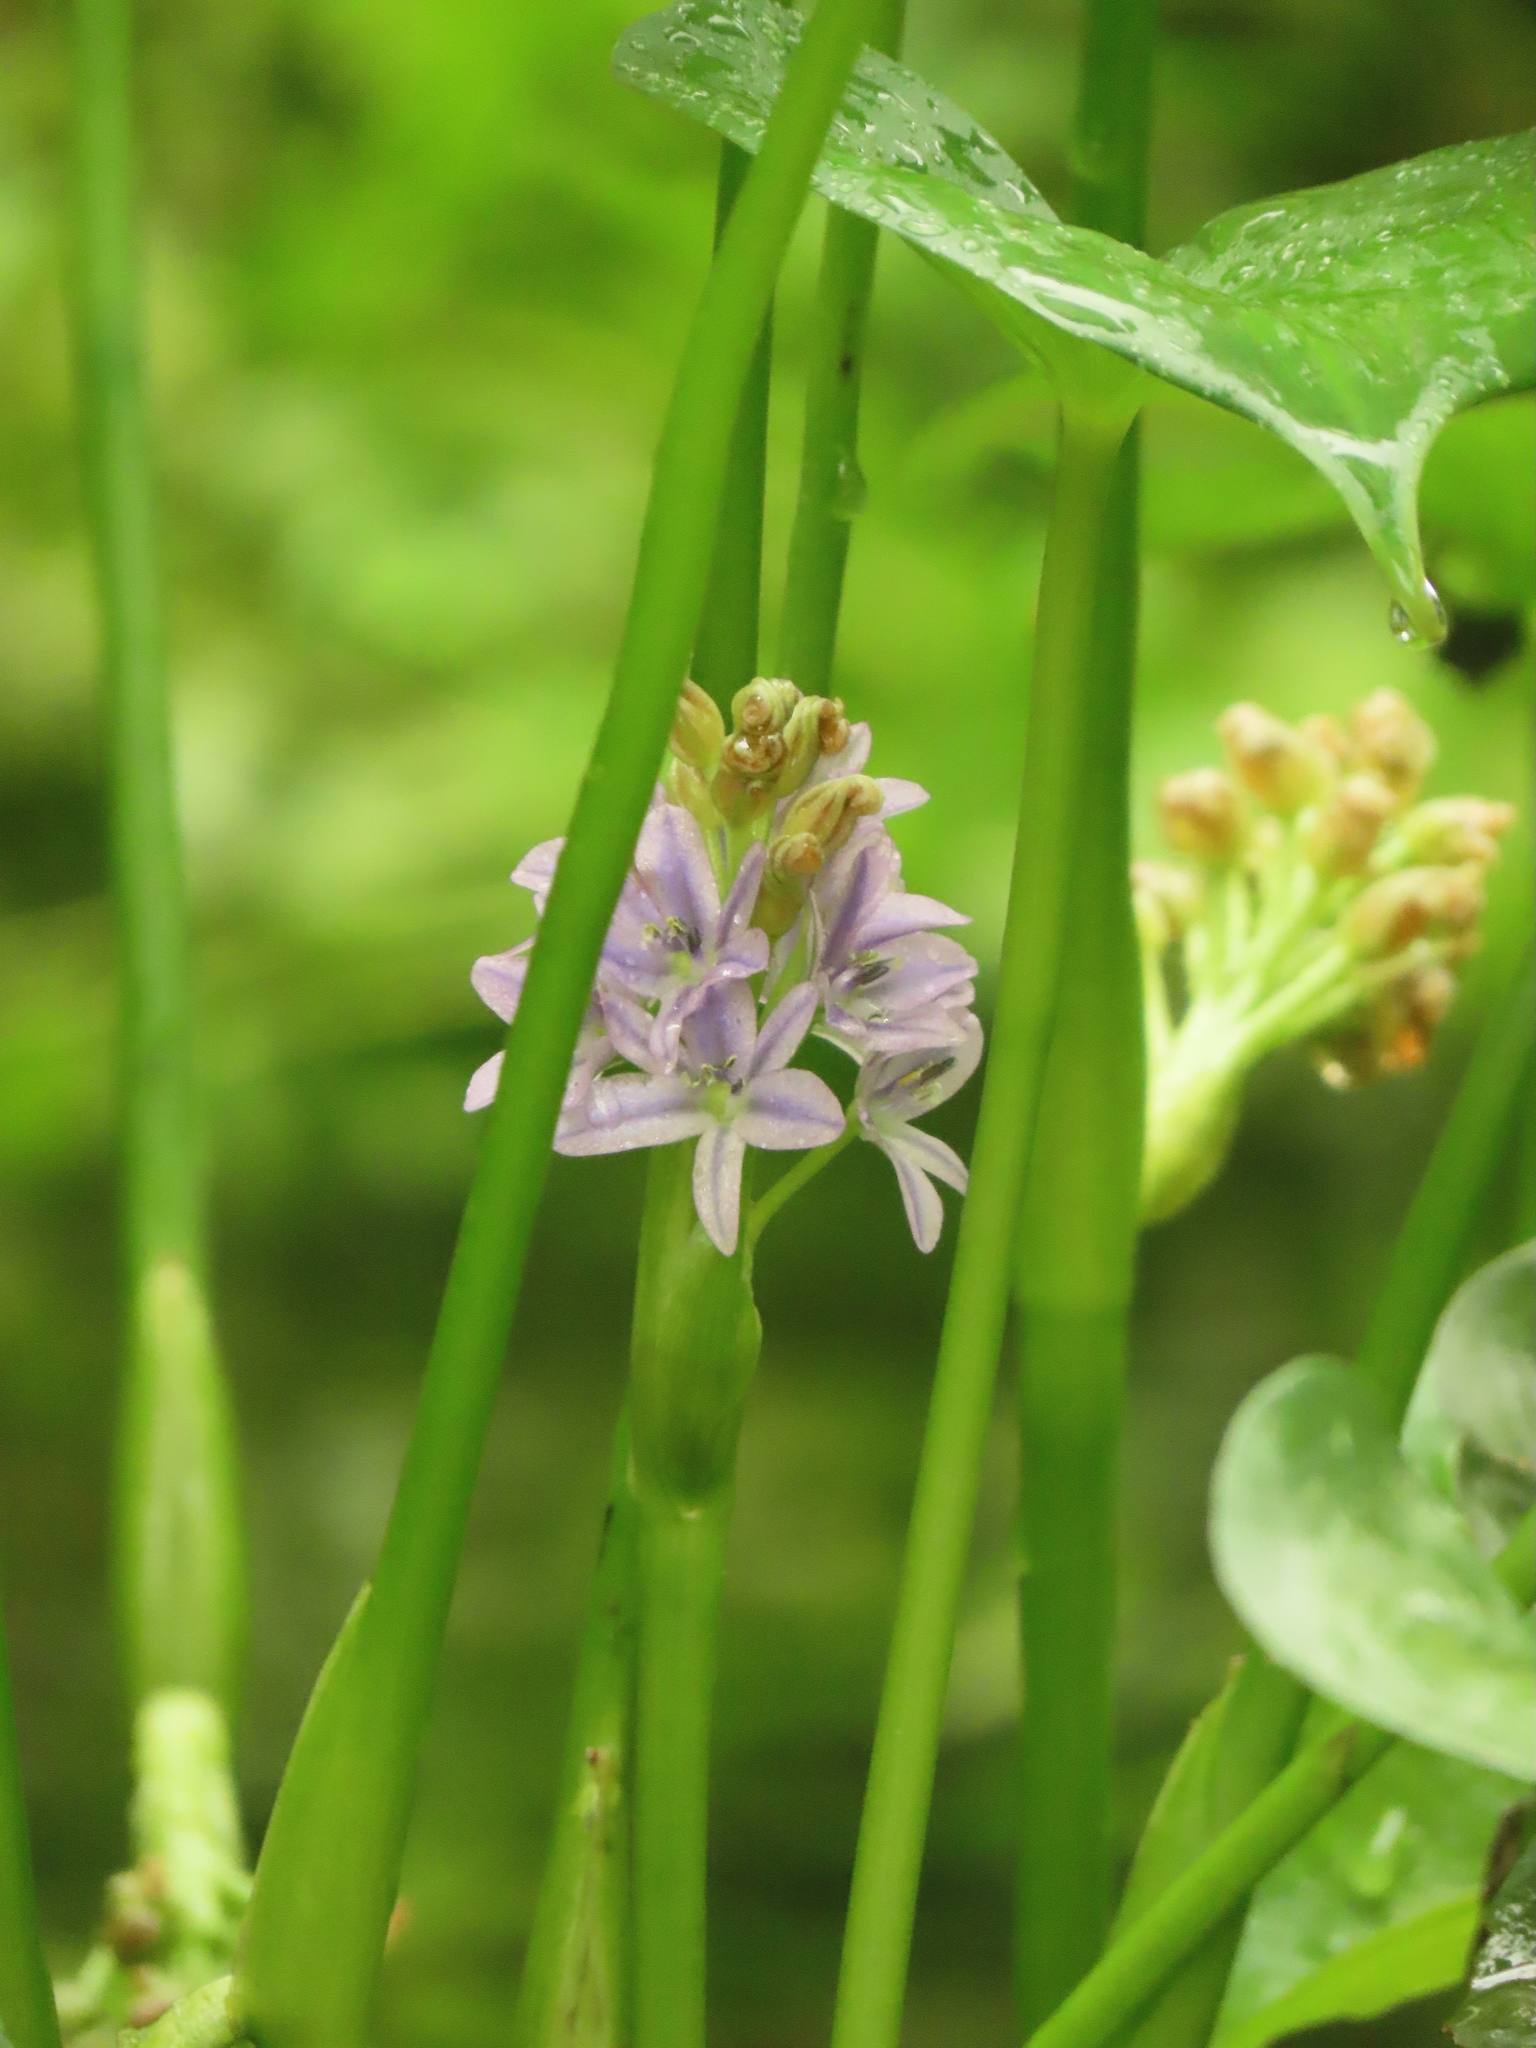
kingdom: Plantae
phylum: Tracheophyta
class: Liliopsida
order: Commelinales
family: Pontederiaceae
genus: Pontederia
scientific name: Pontederia vaginalis
